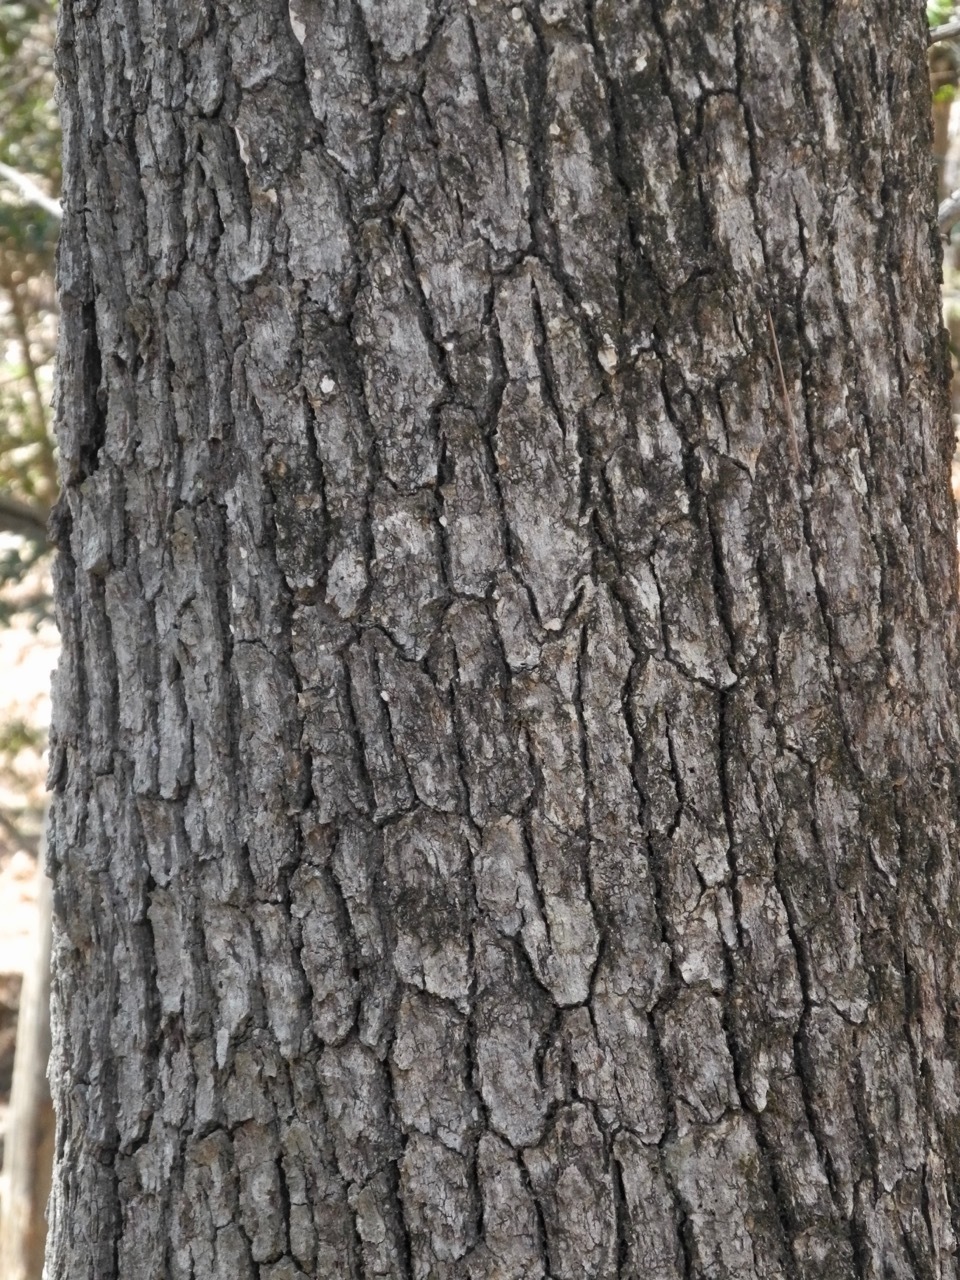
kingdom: Plantae
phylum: Tracheophyta
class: Magnoliopsida
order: Fagales
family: Fagaceae
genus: Quercus
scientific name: Quercus alba
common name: White oak
